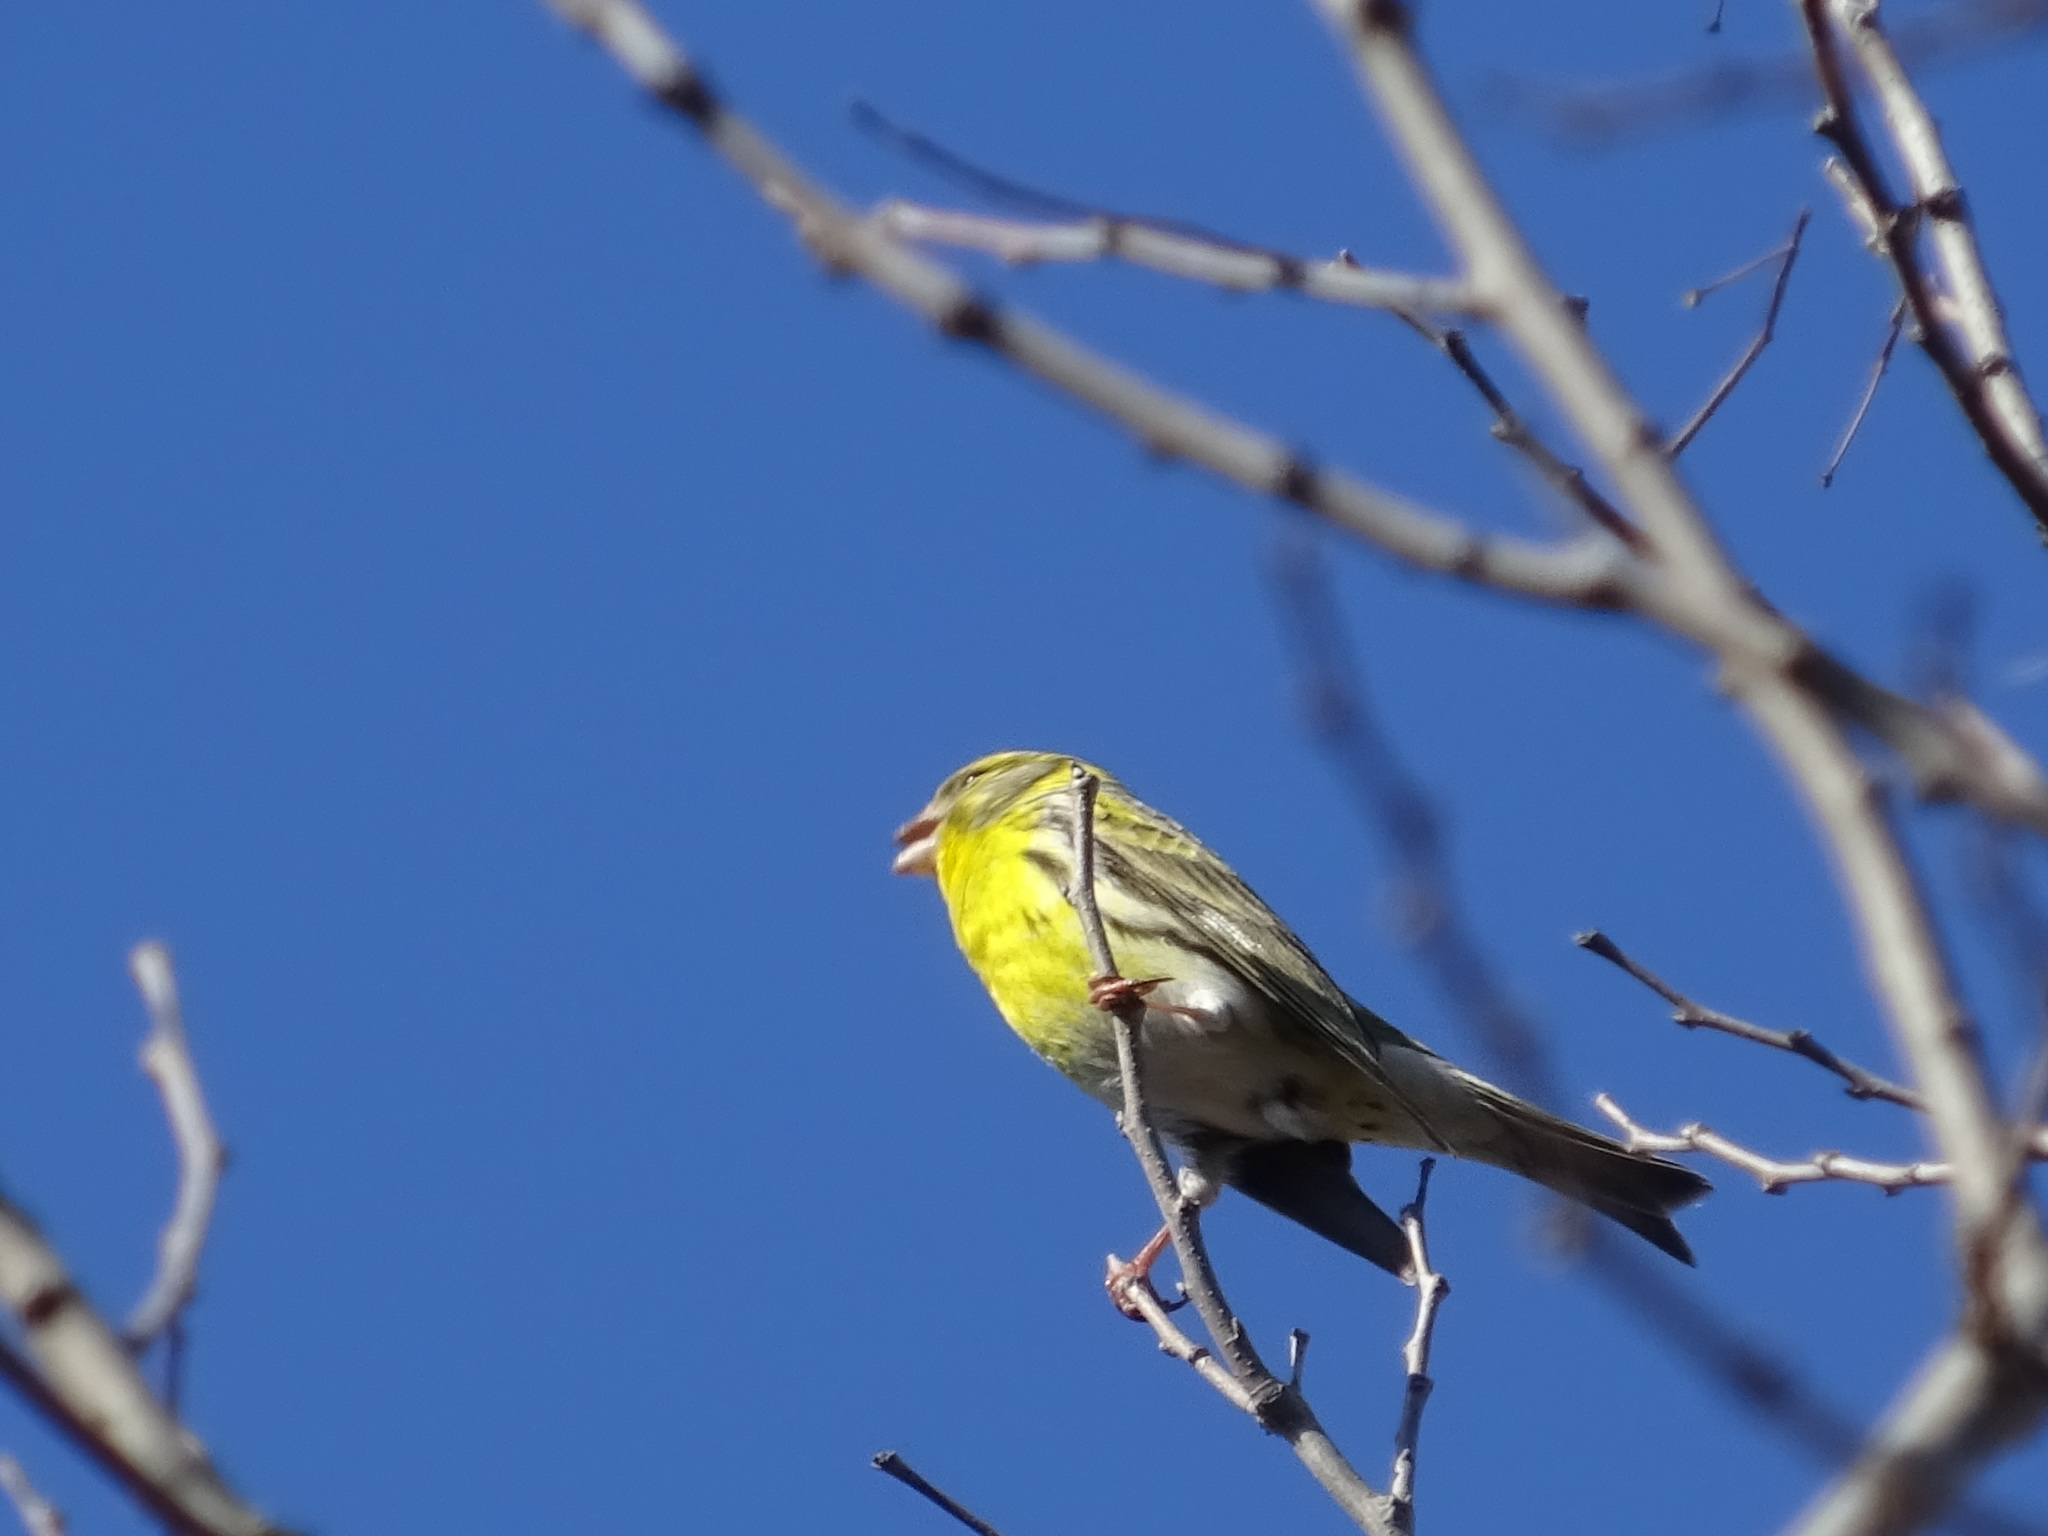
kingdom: Animalia
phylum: Chordata
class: Aves
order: Passeriformes
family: Fringillidae
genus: Serinus
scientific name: Serinus serinus
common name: European serin
